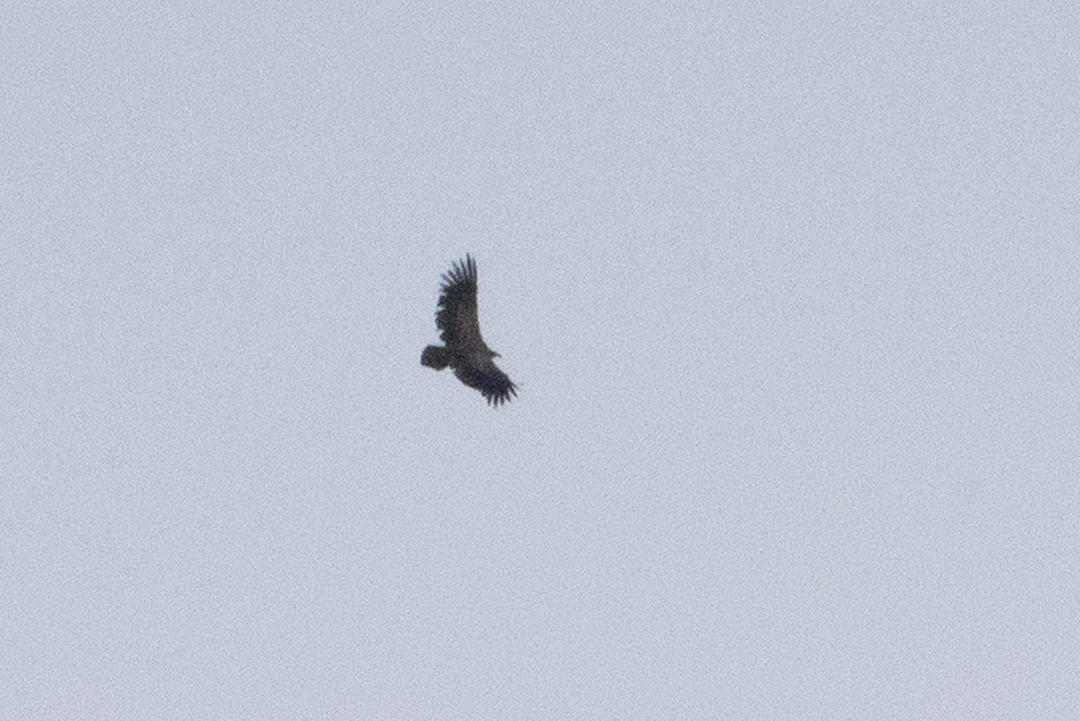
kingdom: Animalia
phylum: Chordata
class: Aves
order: Accipitriformes
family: Cathartidae
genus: Vultur
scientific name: Vultur gryphus
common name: Andean condor
